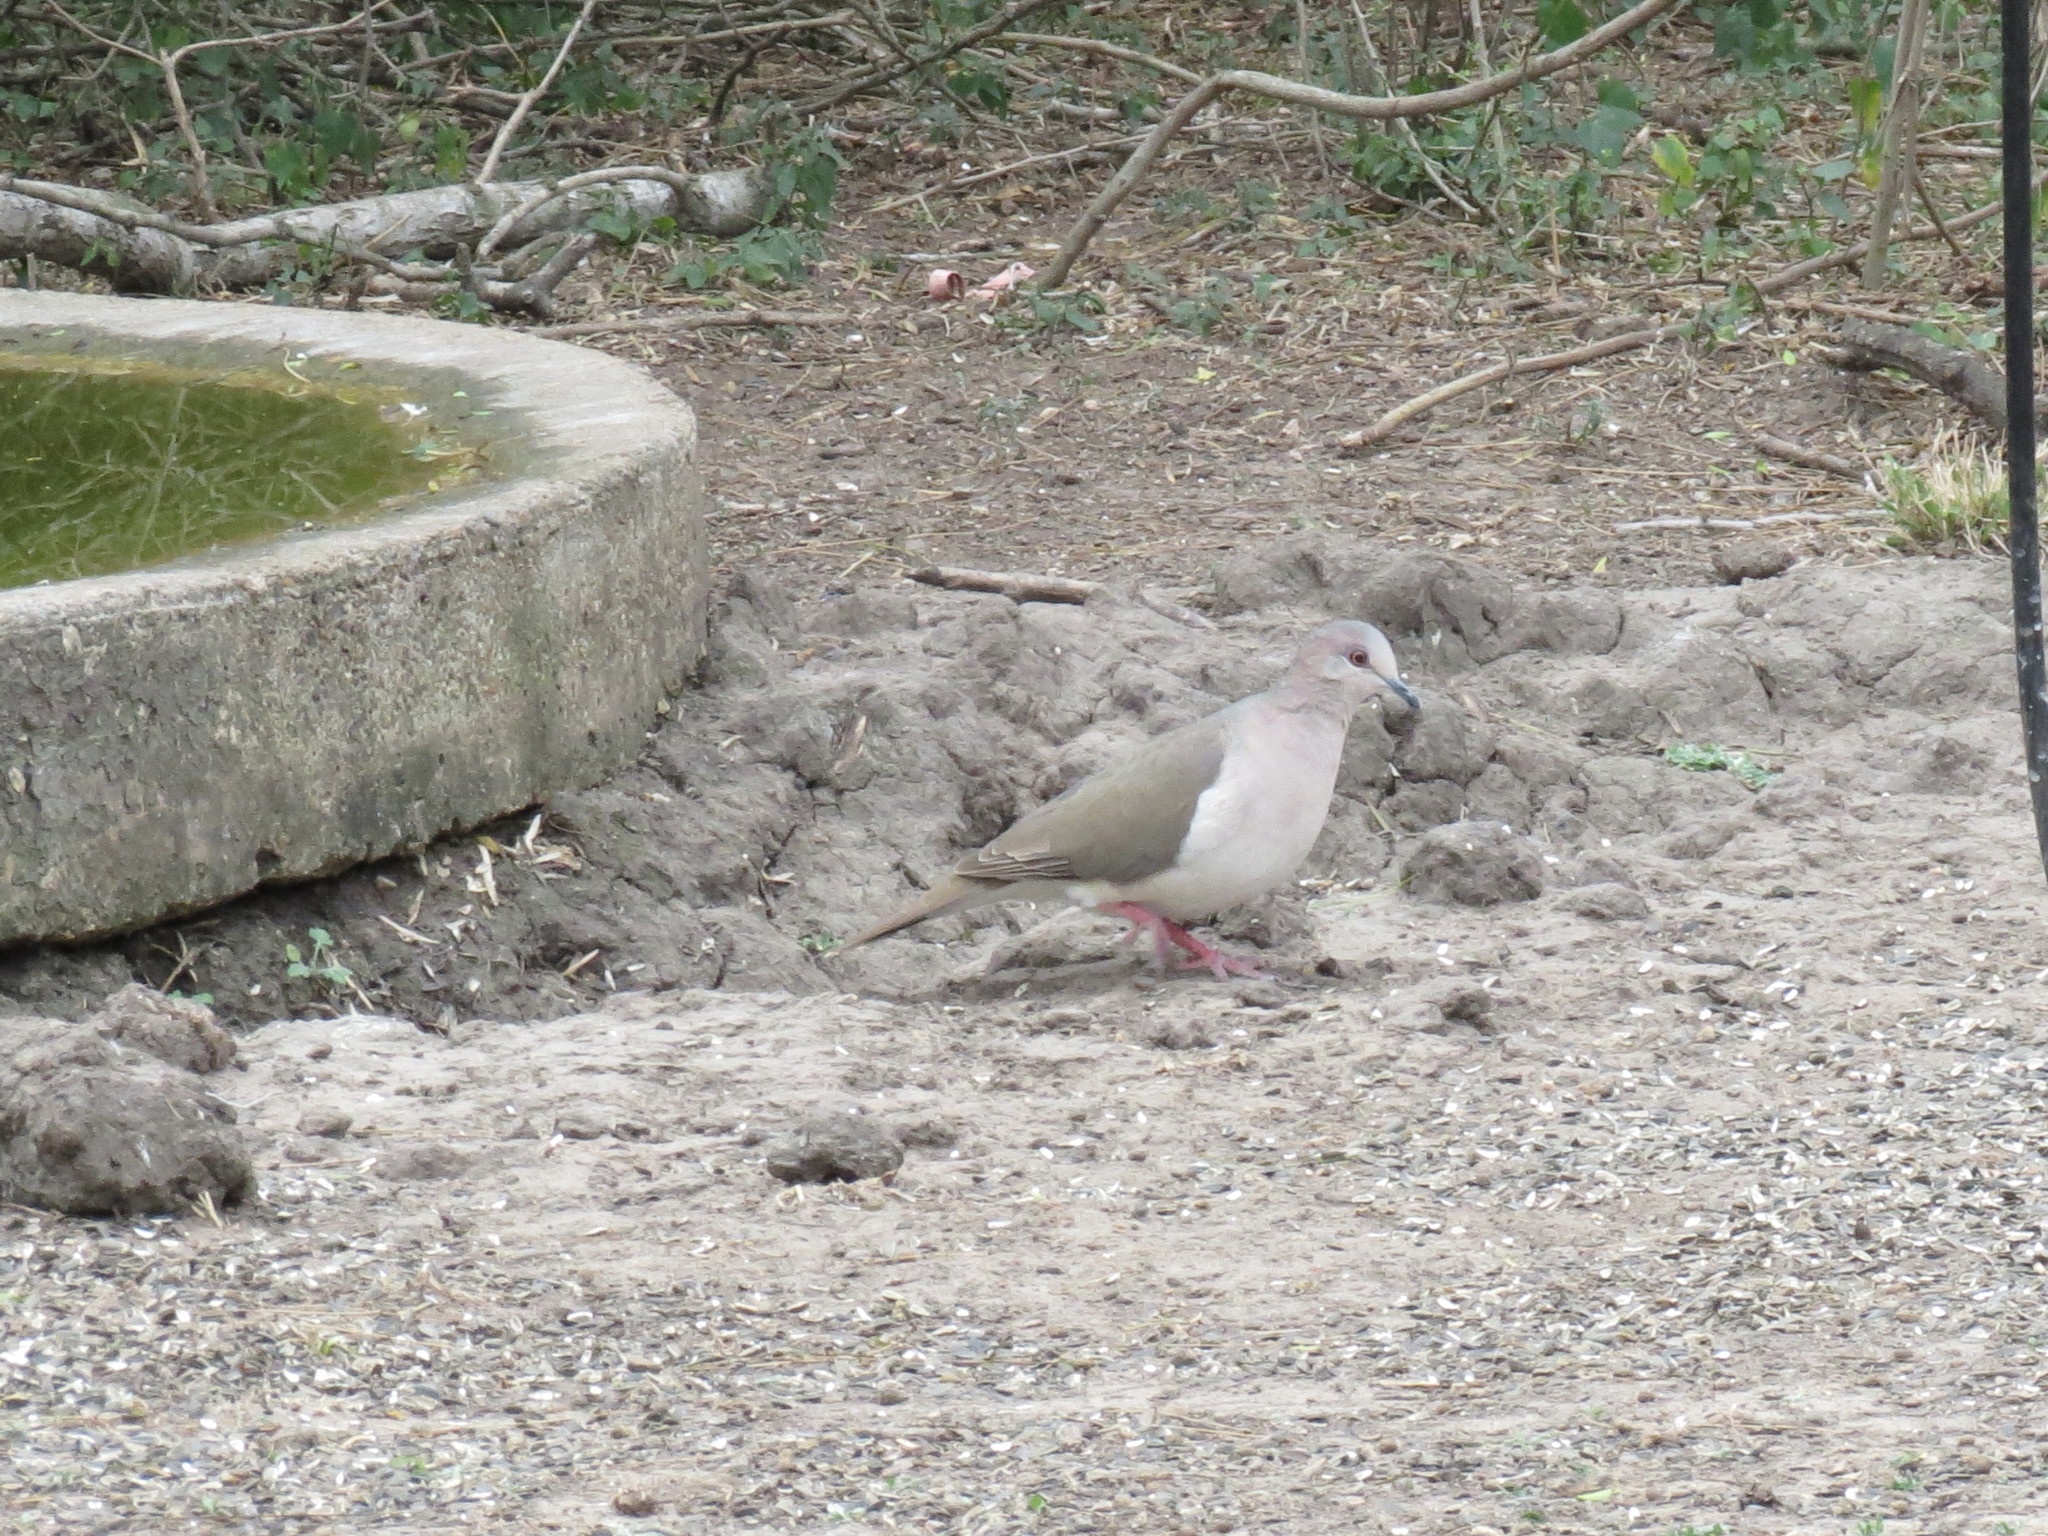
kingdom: Animalia
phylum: Chordata
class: Aves
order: Columbiformes
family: Columbidae
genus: Leptotila
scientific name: Leptotila verreauxi
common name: White-tipped dove
